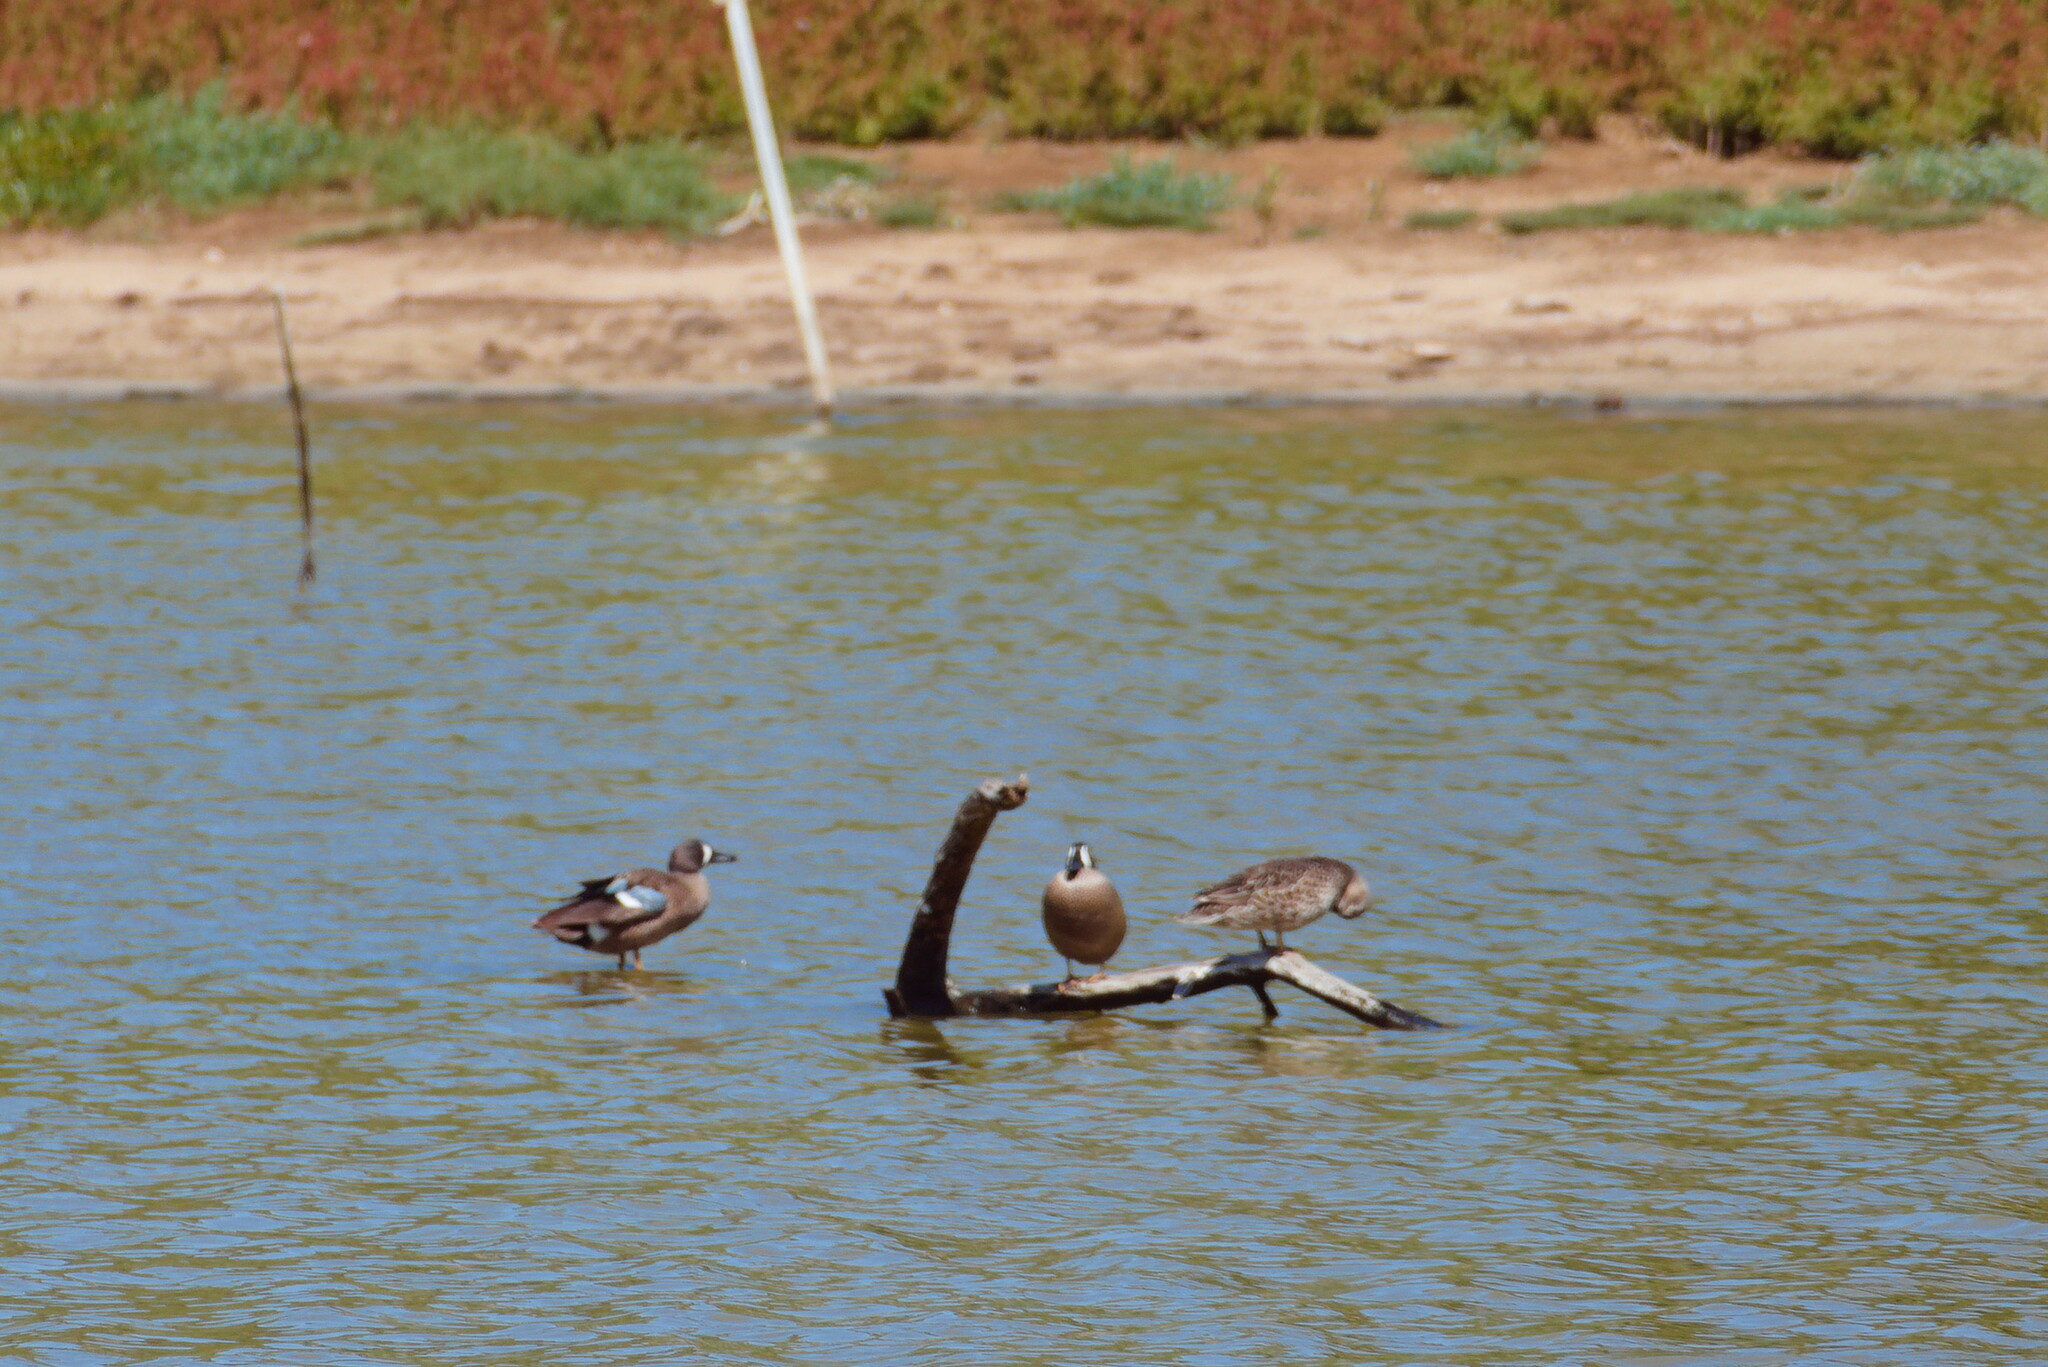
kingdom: Animalia
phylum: Chordata
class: Aves
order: Anseriformes
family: Anatidae
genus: Spatula
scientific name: Spatula discors
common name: Blue-winged teal
